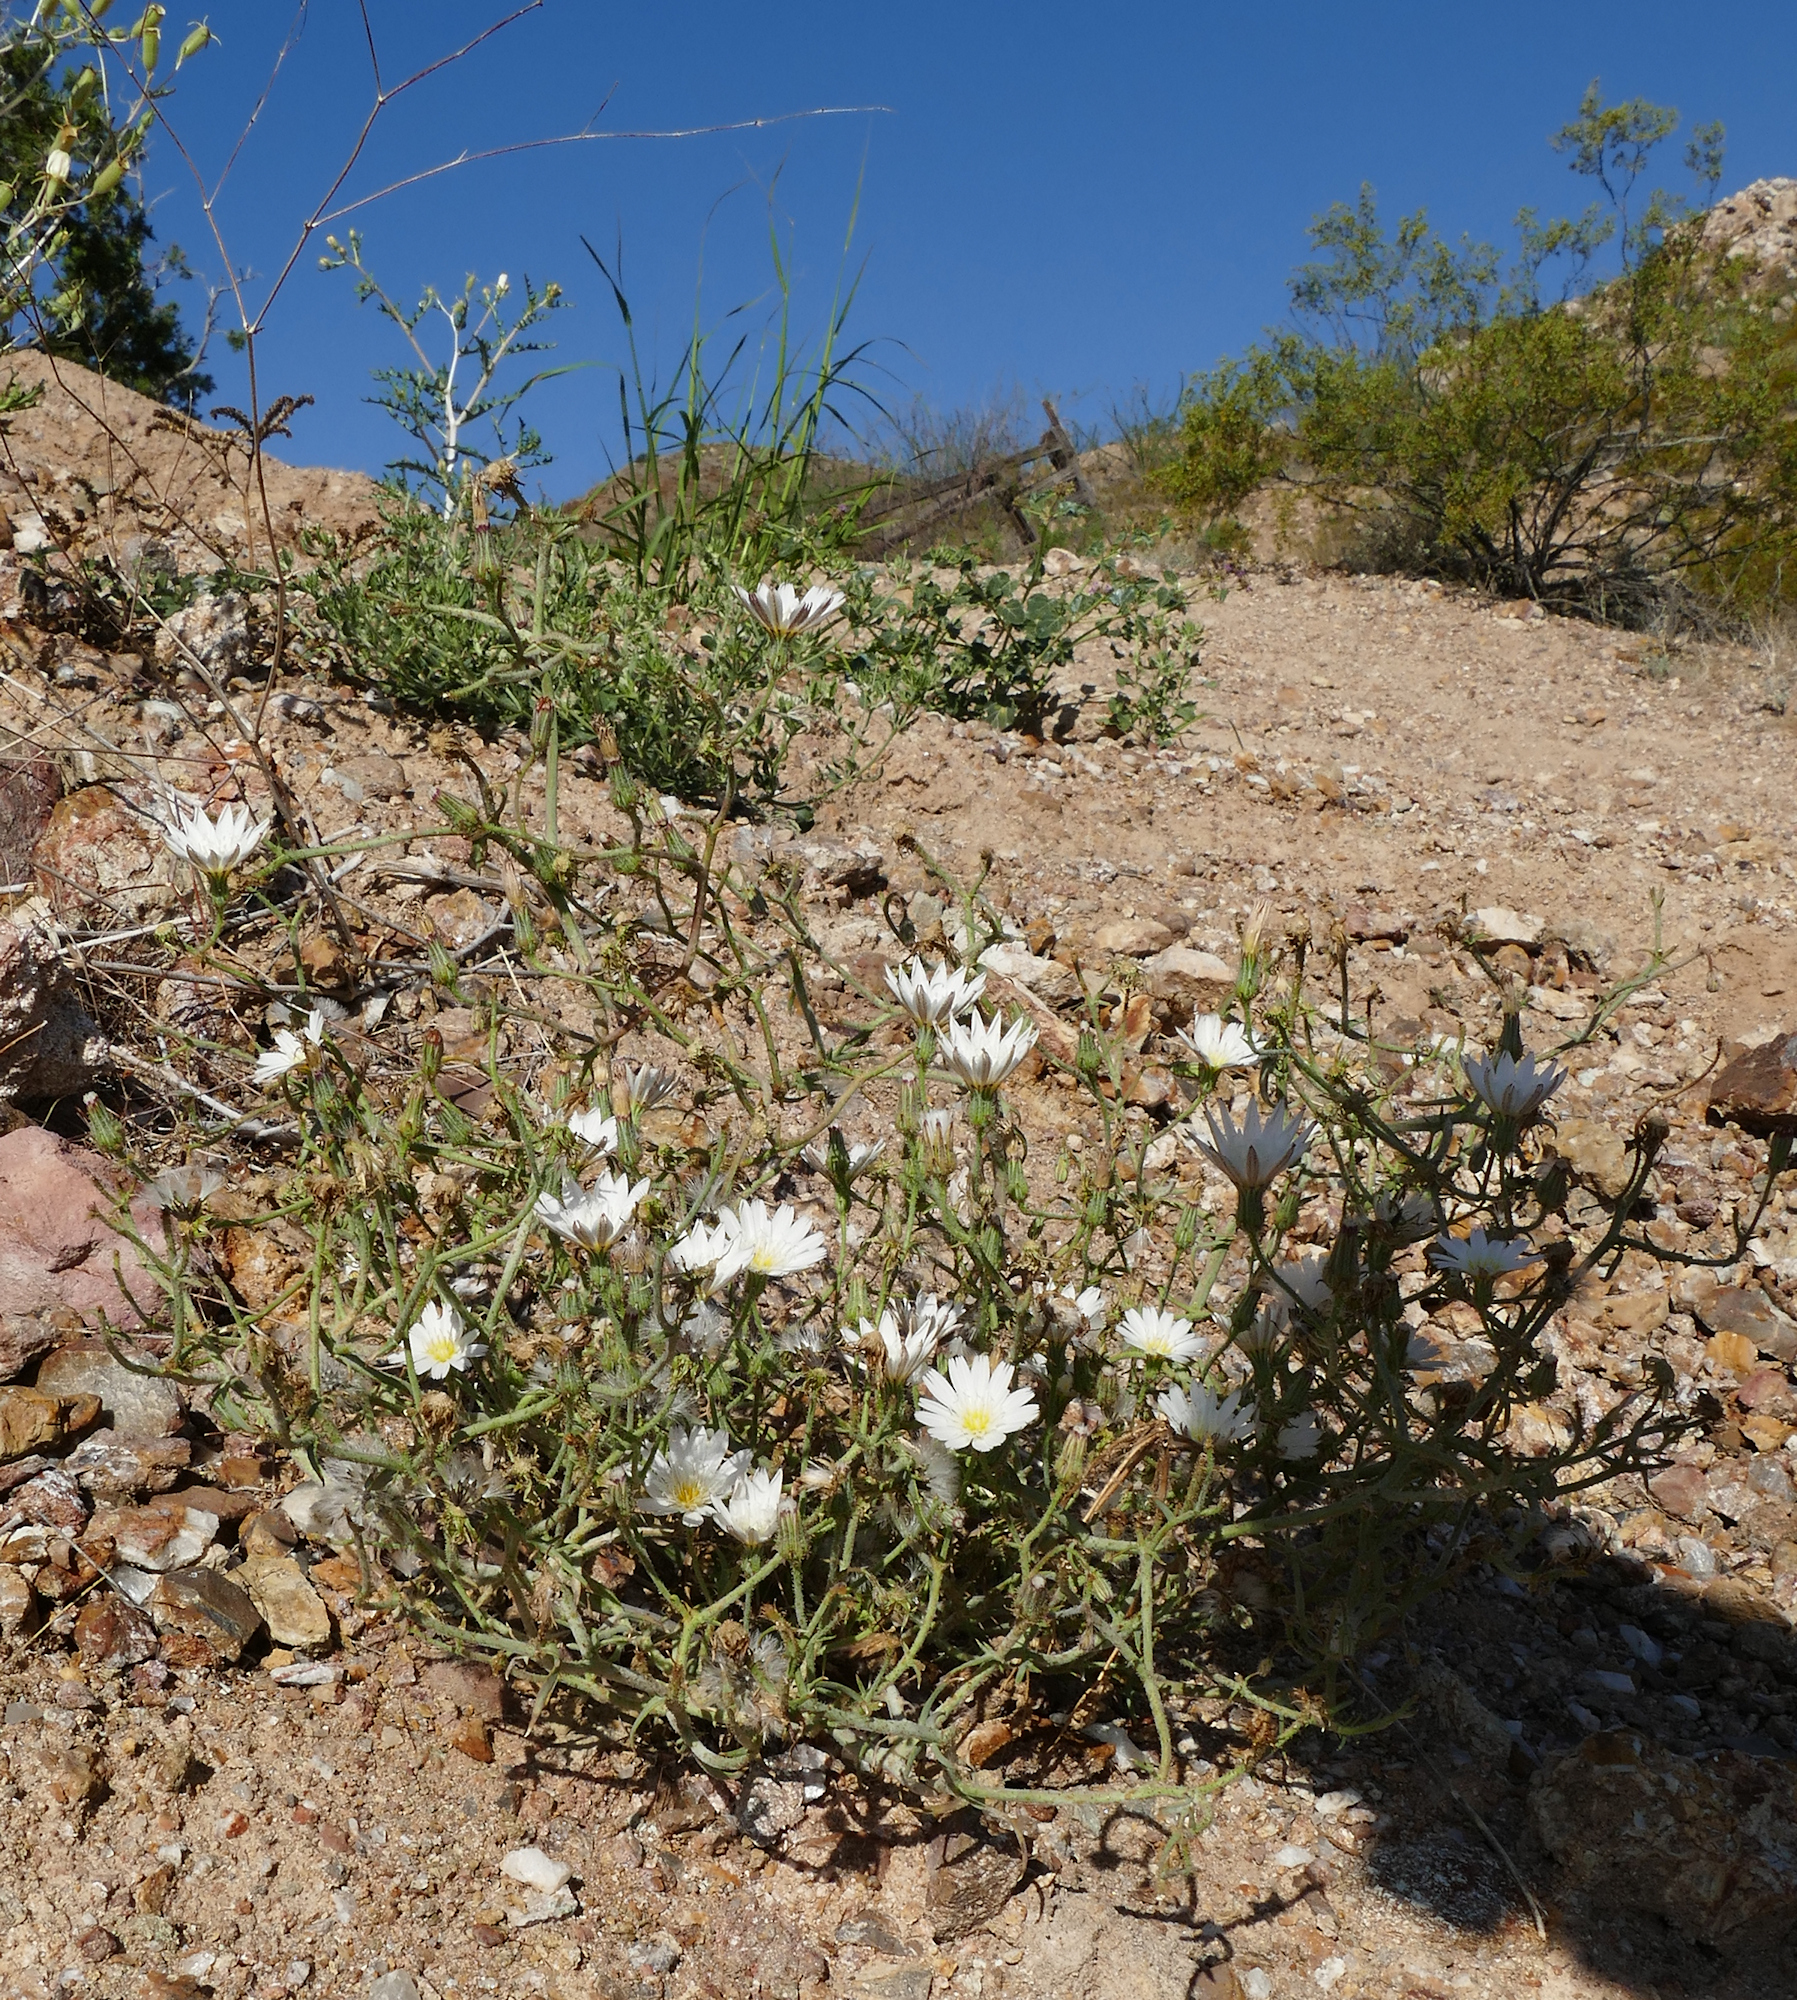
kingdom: Plantae
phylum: Tracheophyta
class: Magnoliopsida
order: Asterales
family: Asteraceae
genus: Calycoseris
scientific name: Calycoseris wrightii
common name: White tackstem
